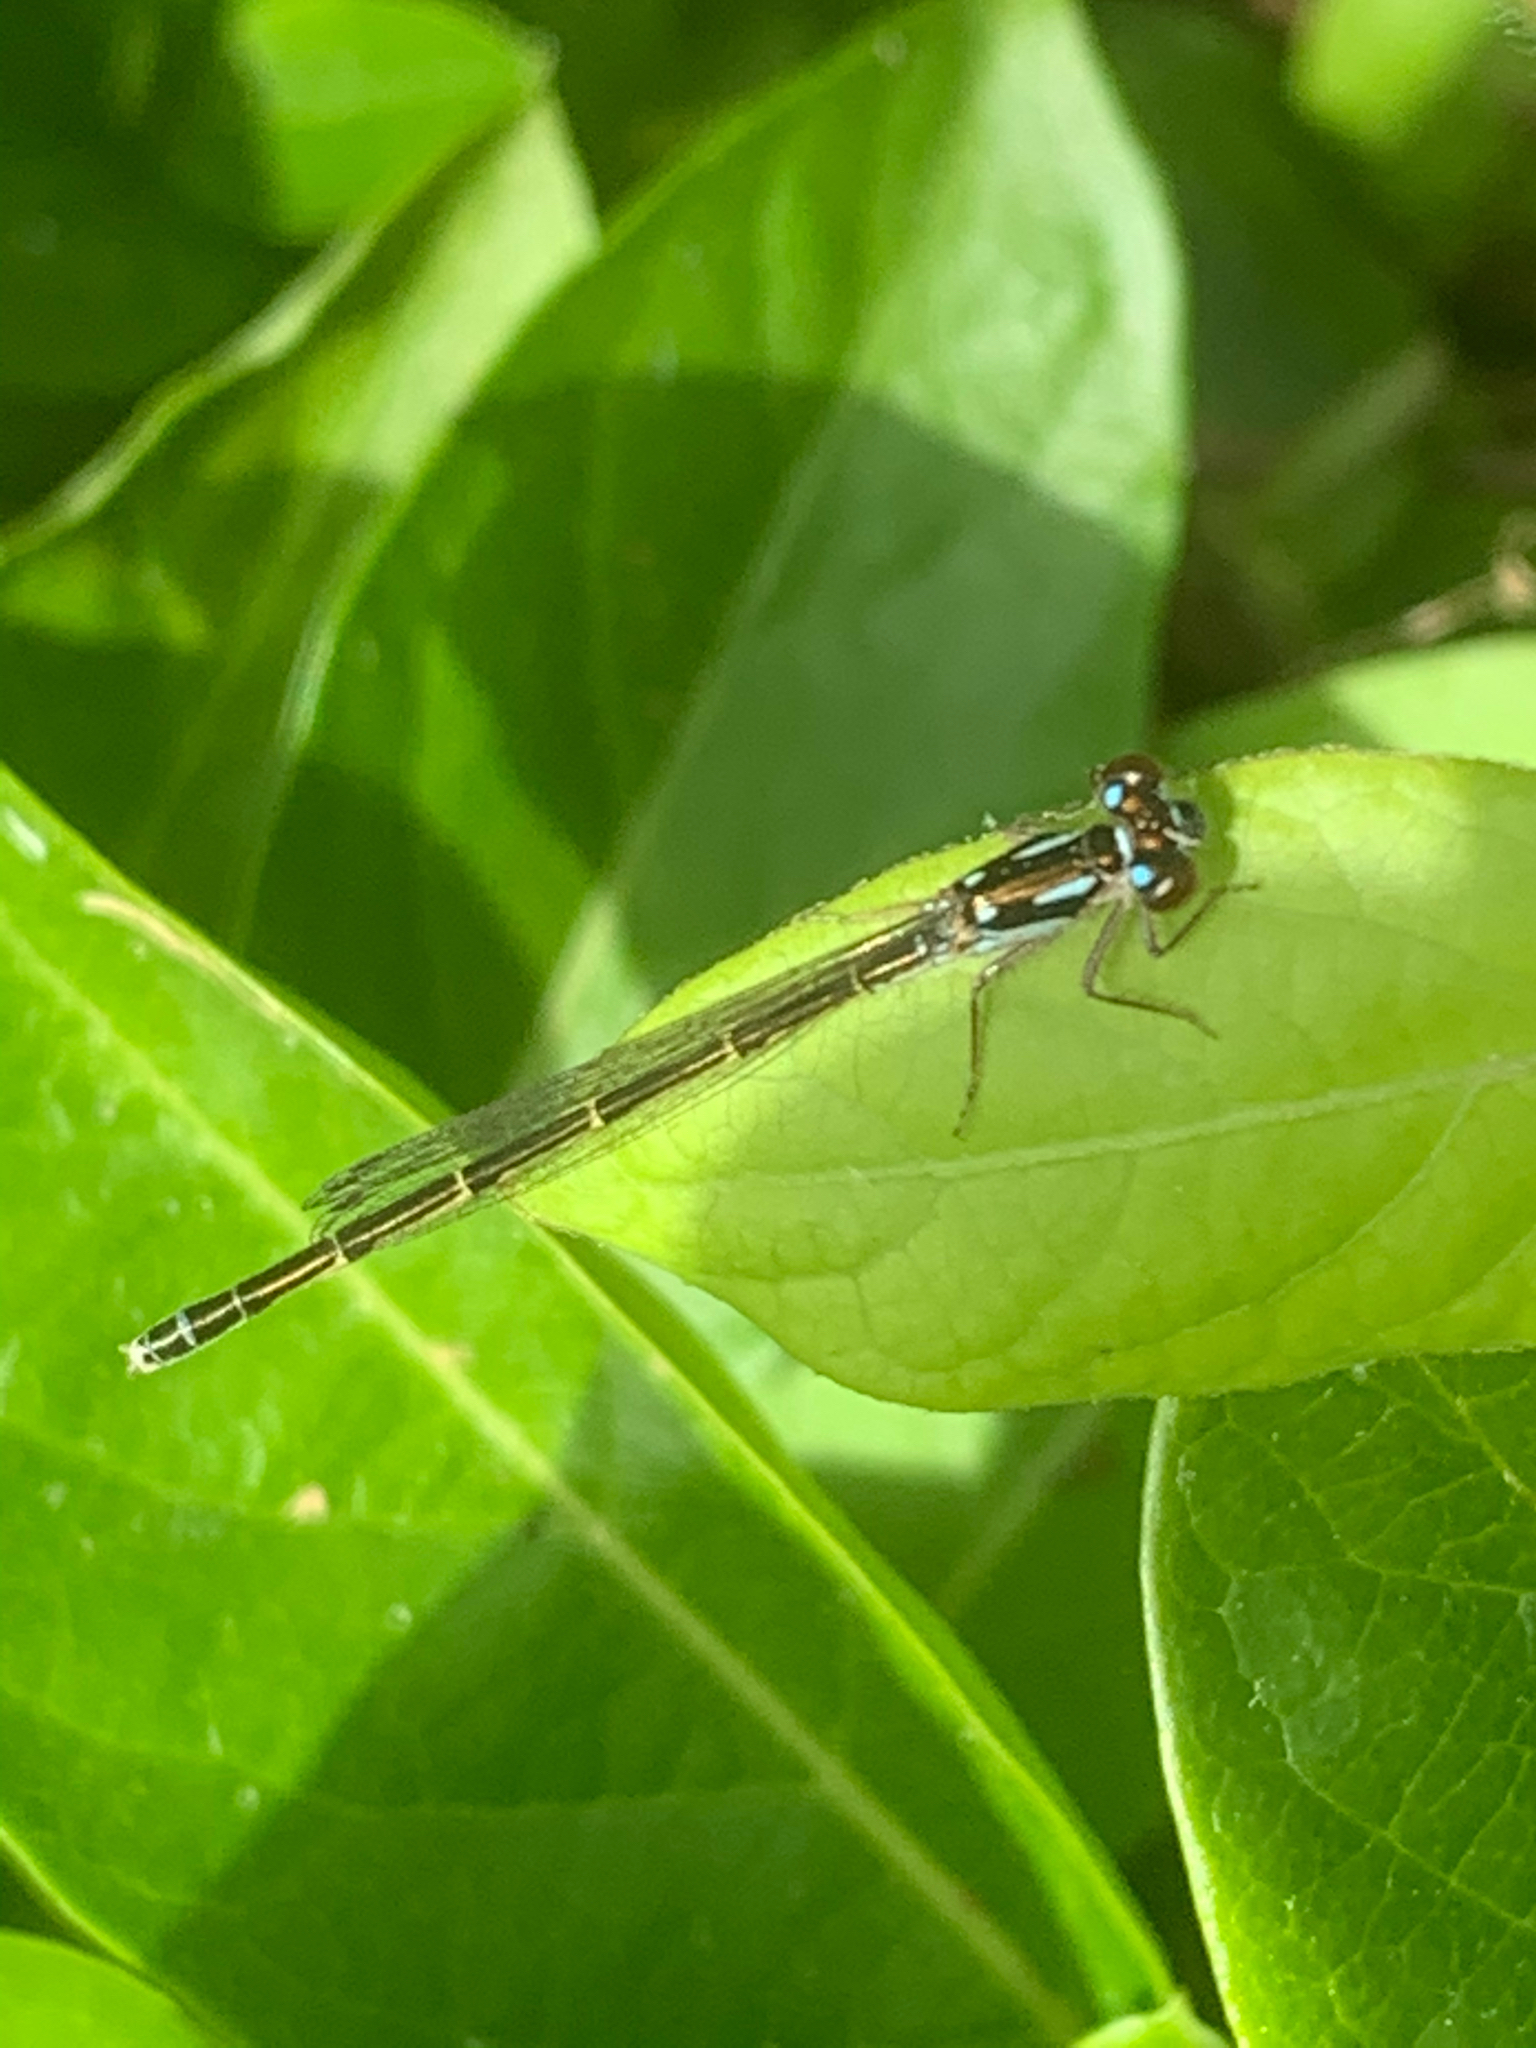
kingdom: Animalia
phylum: Arthropoda
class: Insecta
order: Odonata
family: Coenagrionidae
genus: Ischnura
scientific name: Ischnura posita
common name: Fragile forktail
